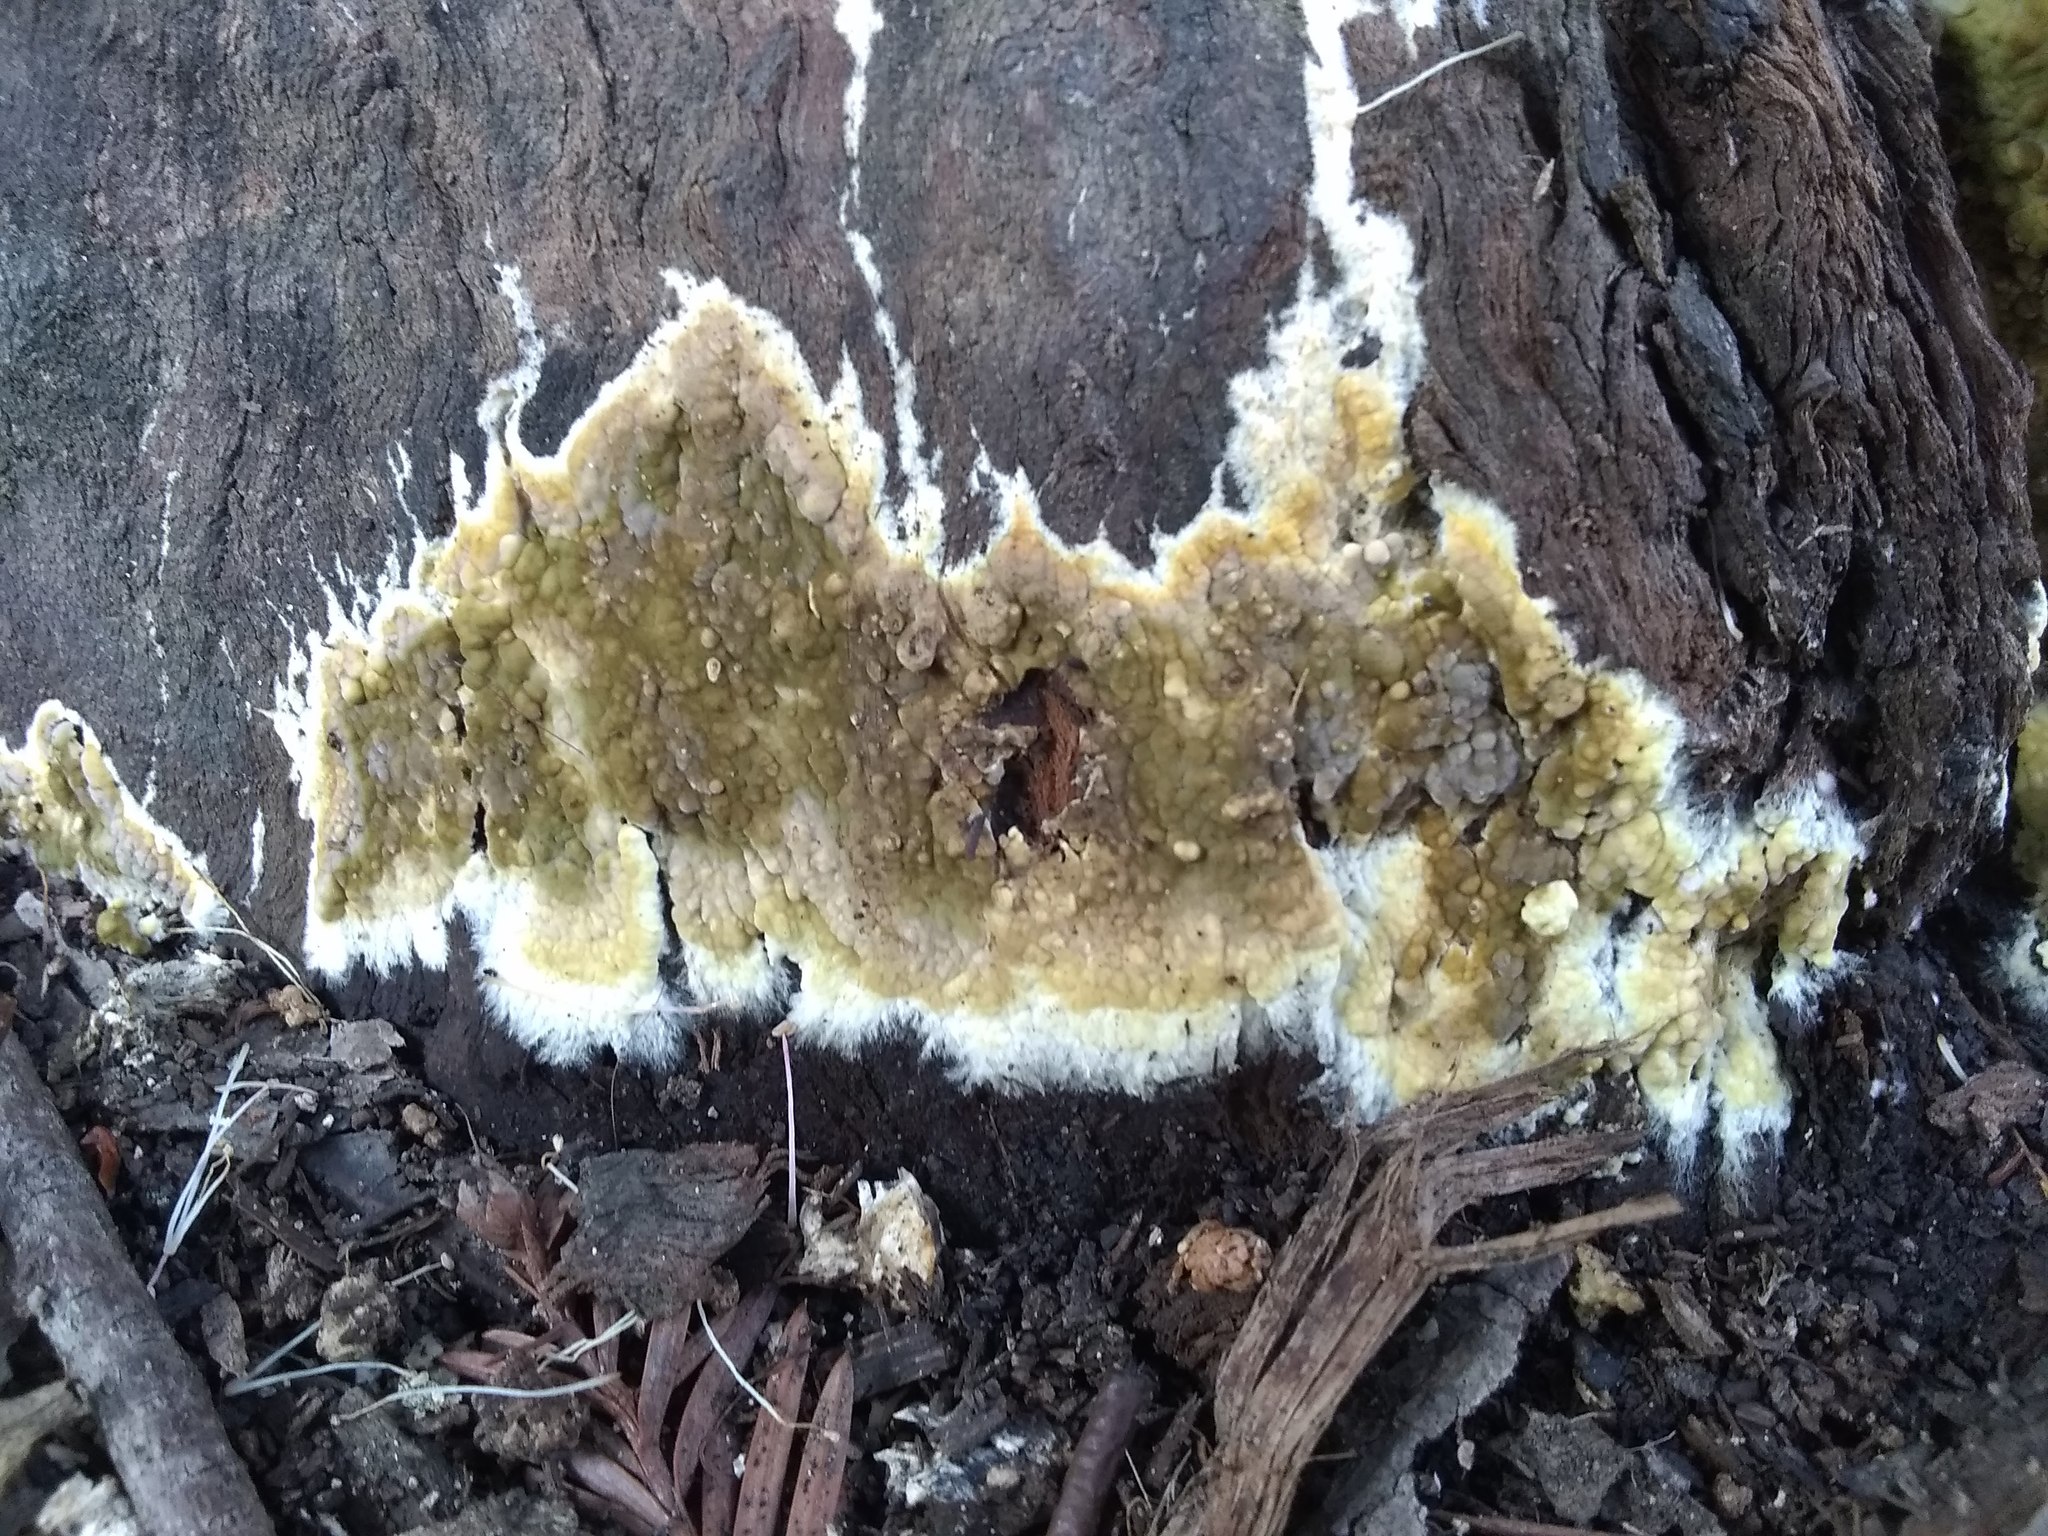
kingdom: Fungi
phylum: Basidiomycota
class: Agaricomycetes
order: Boletales
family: Coniophoraceae
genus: Coniophora
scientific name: Coniophora olivacea
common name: Olive duster
